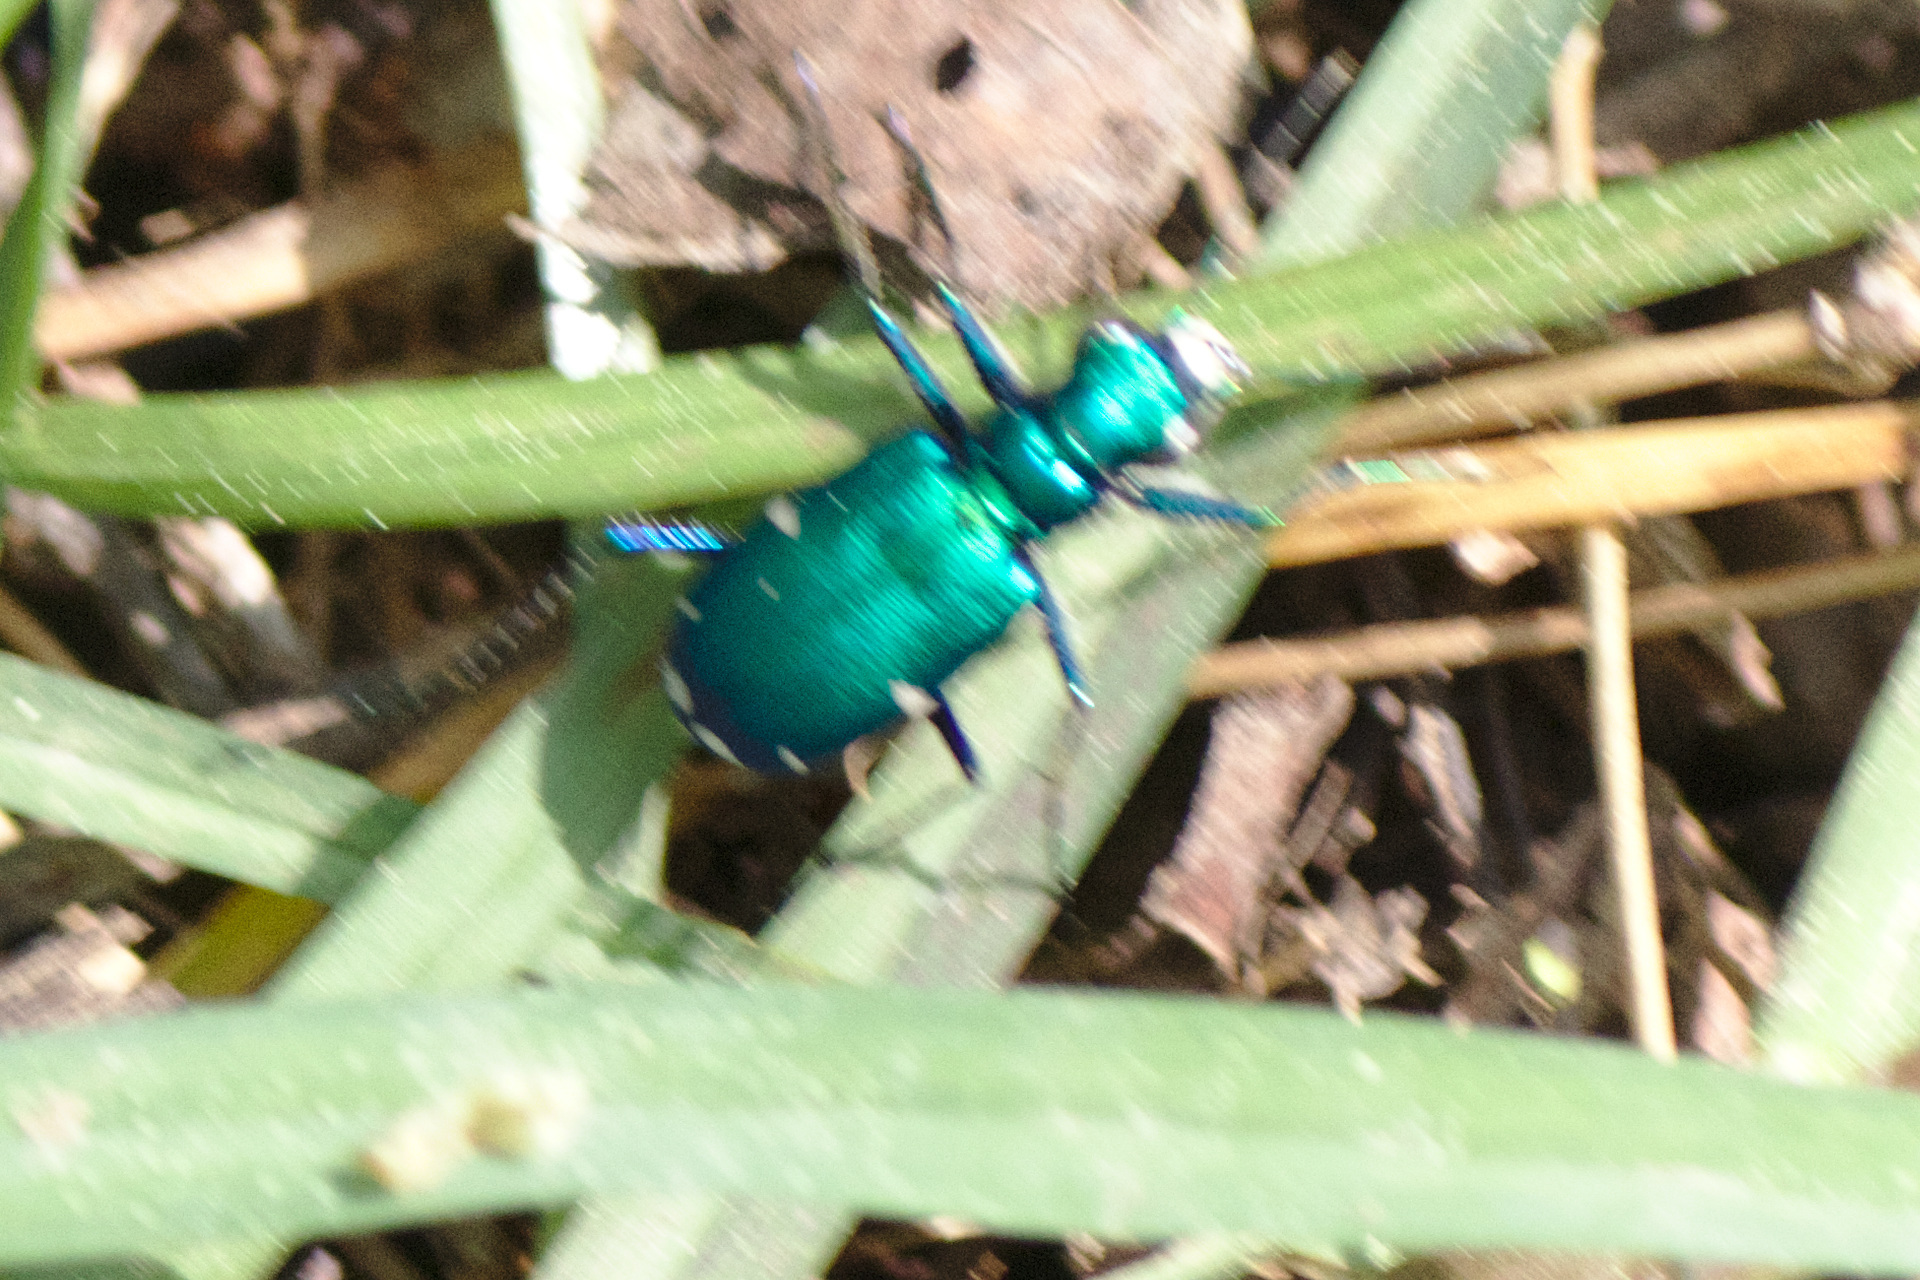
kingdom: Animalia
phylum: Arthropoda
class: Insecta
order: Coleoptera
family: Carabidae
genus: Cicindela
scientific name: Cicindela sexguttata
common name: Six-spotted tiger beetle
